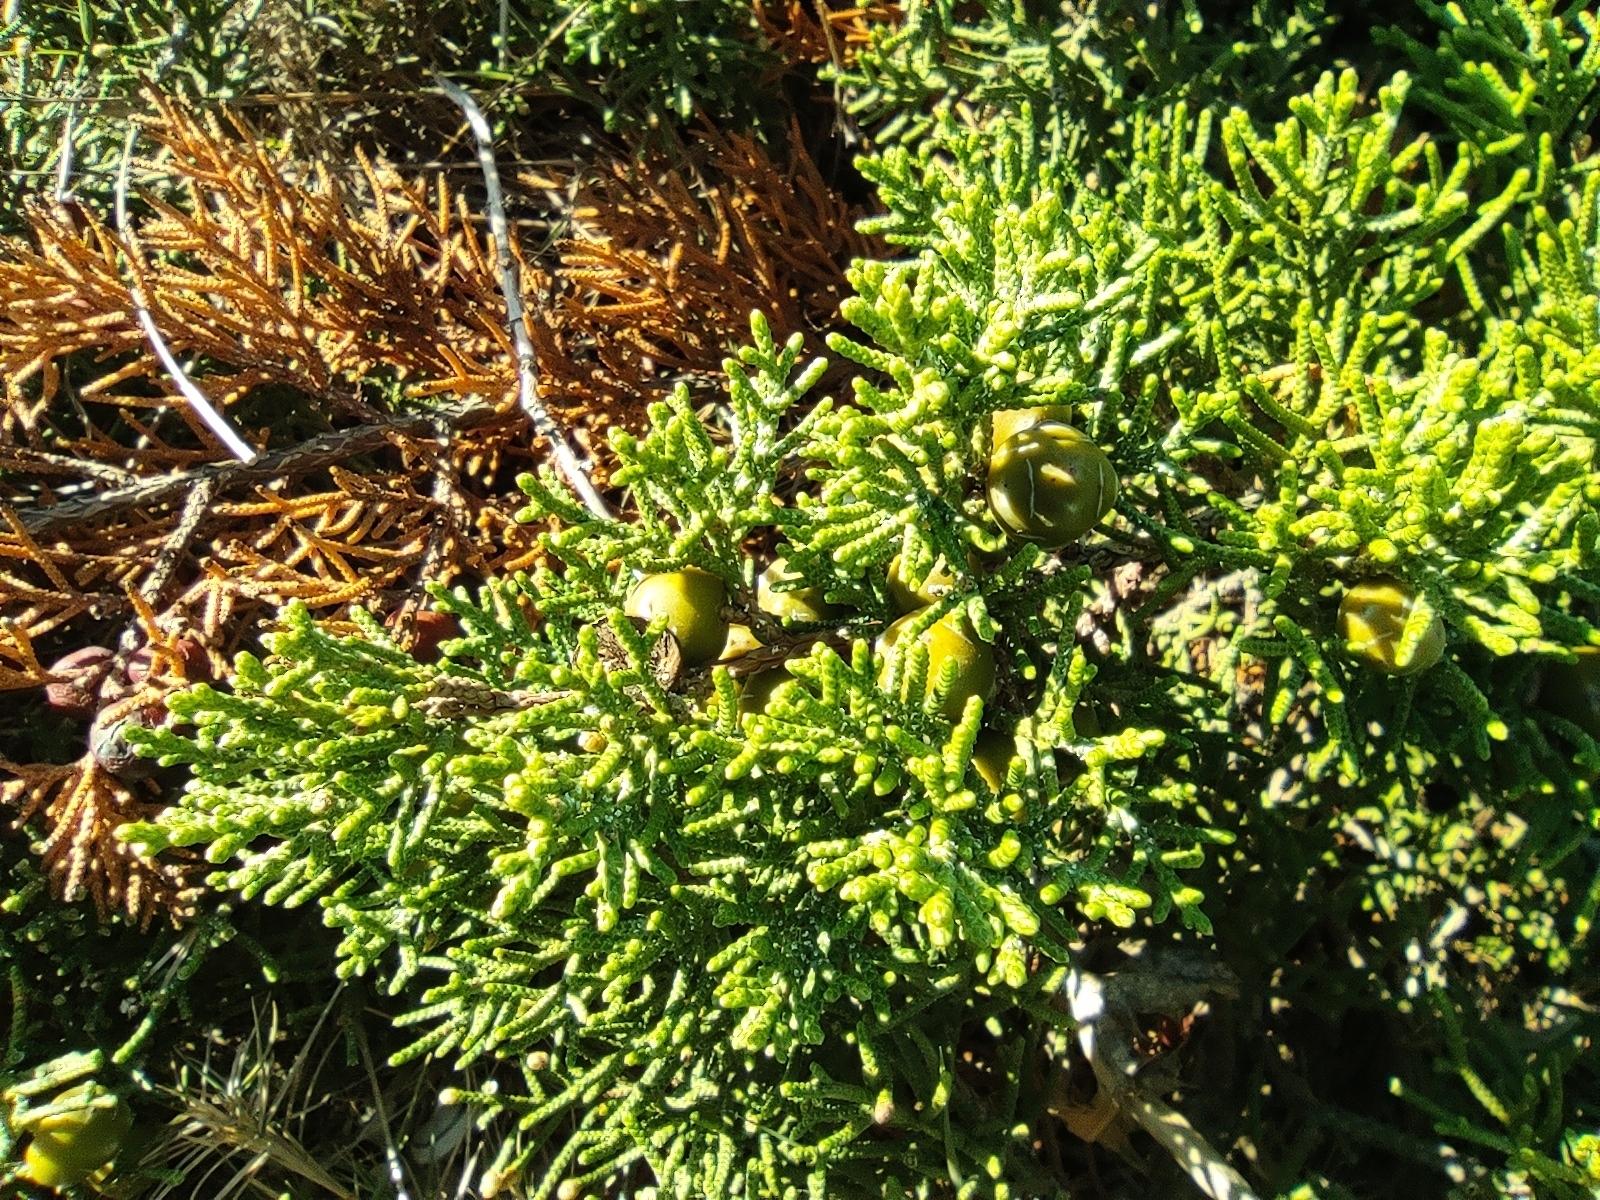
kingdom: Plantae
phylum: Tracheophyta
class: Pinopsida
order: Pinales
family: Cupressaceae
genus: Juniperus
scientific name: Juniperus phoenicea
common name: Phoenician juniper
